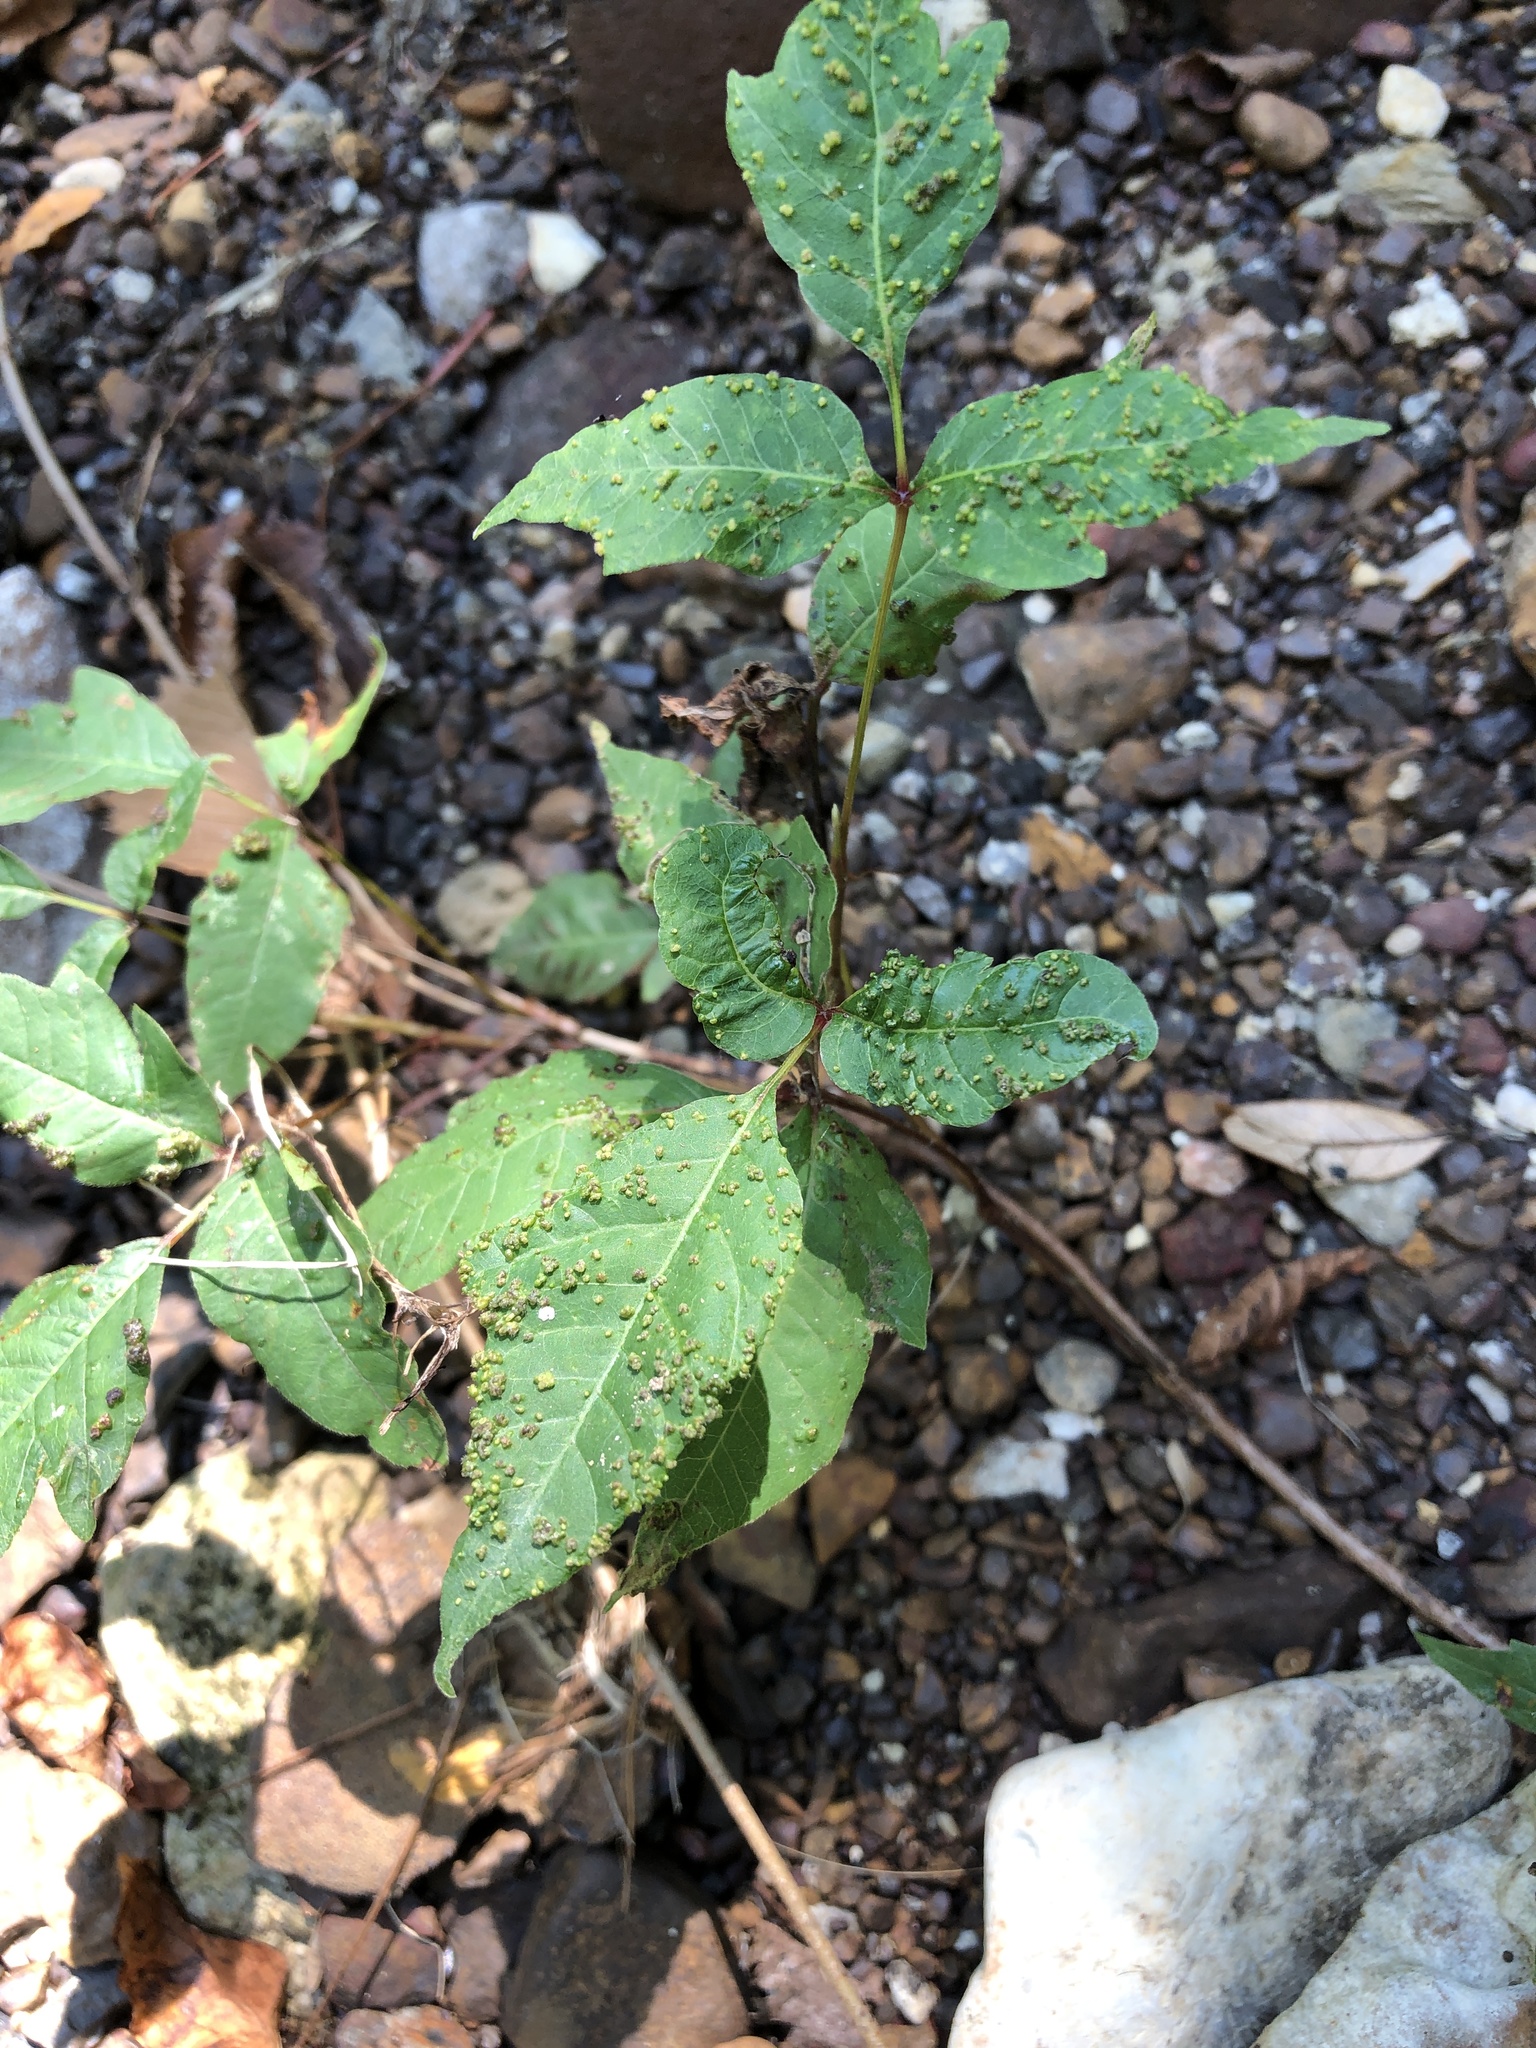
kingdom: Animalia
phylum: Arthropoda
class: Arachnida
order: Trombidiformes
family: Eriophyidae
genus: Aculops
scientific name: Aculops
